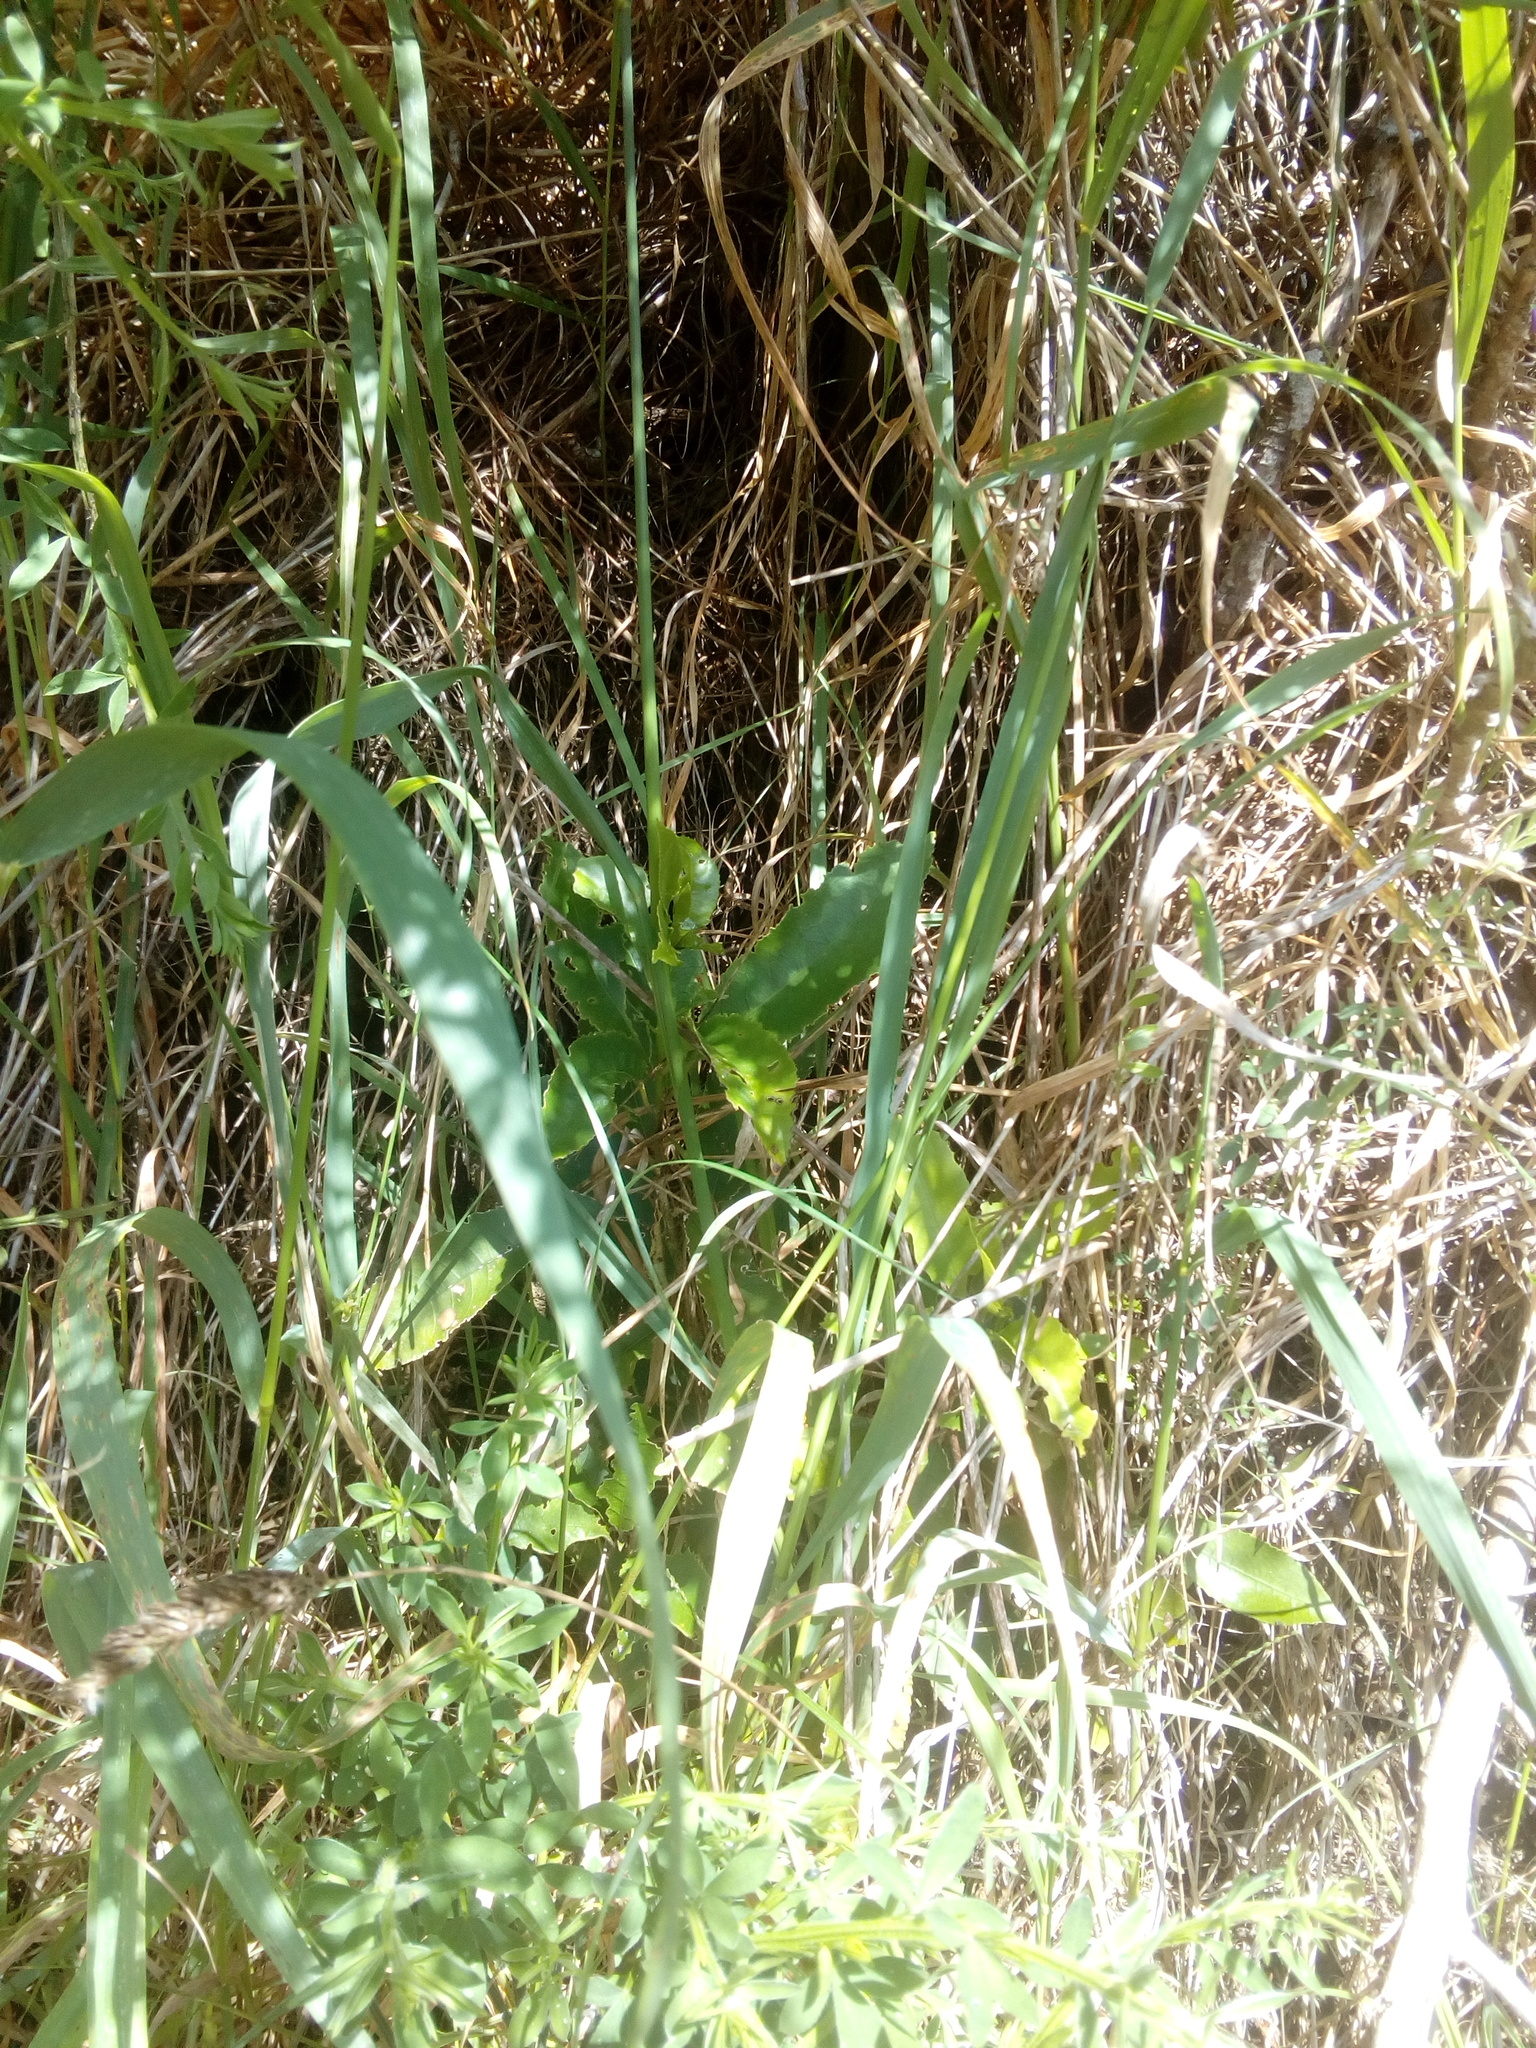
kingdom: Plantae
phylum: Tracheophyta
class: Magnoliopsida
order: Malpighiales
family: Violaceae
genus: Melicytus
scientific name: Melicytus ramiflorus
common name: Mahoe
